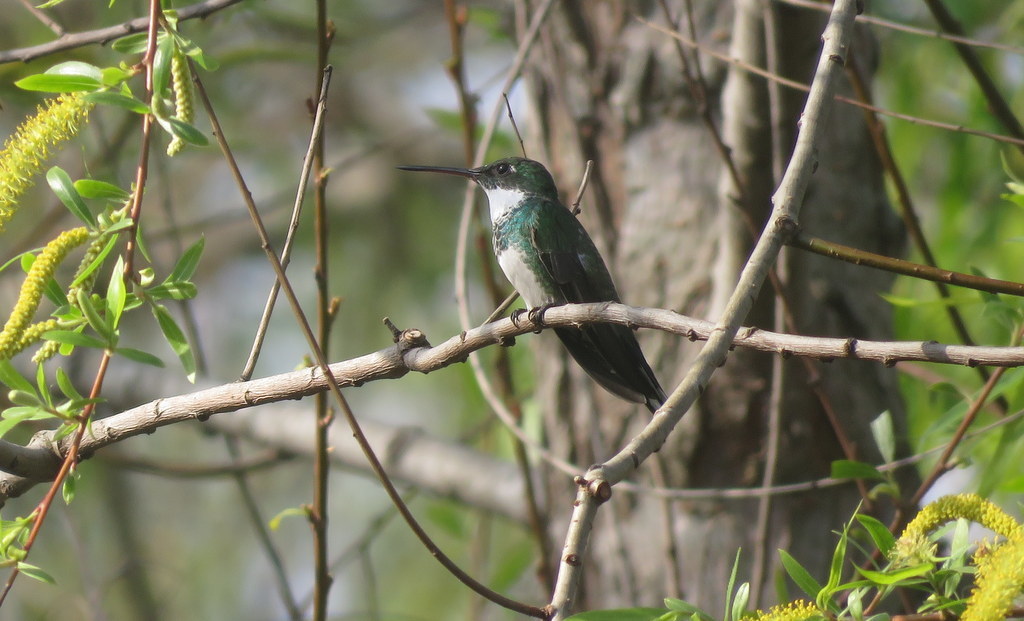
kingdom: Animalia
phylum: Chordata
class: Aves
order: Apodiformes
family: Trochilidae
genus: Leucochloris
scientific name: Leucochloris albicollis
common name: White-throated hummingbird
